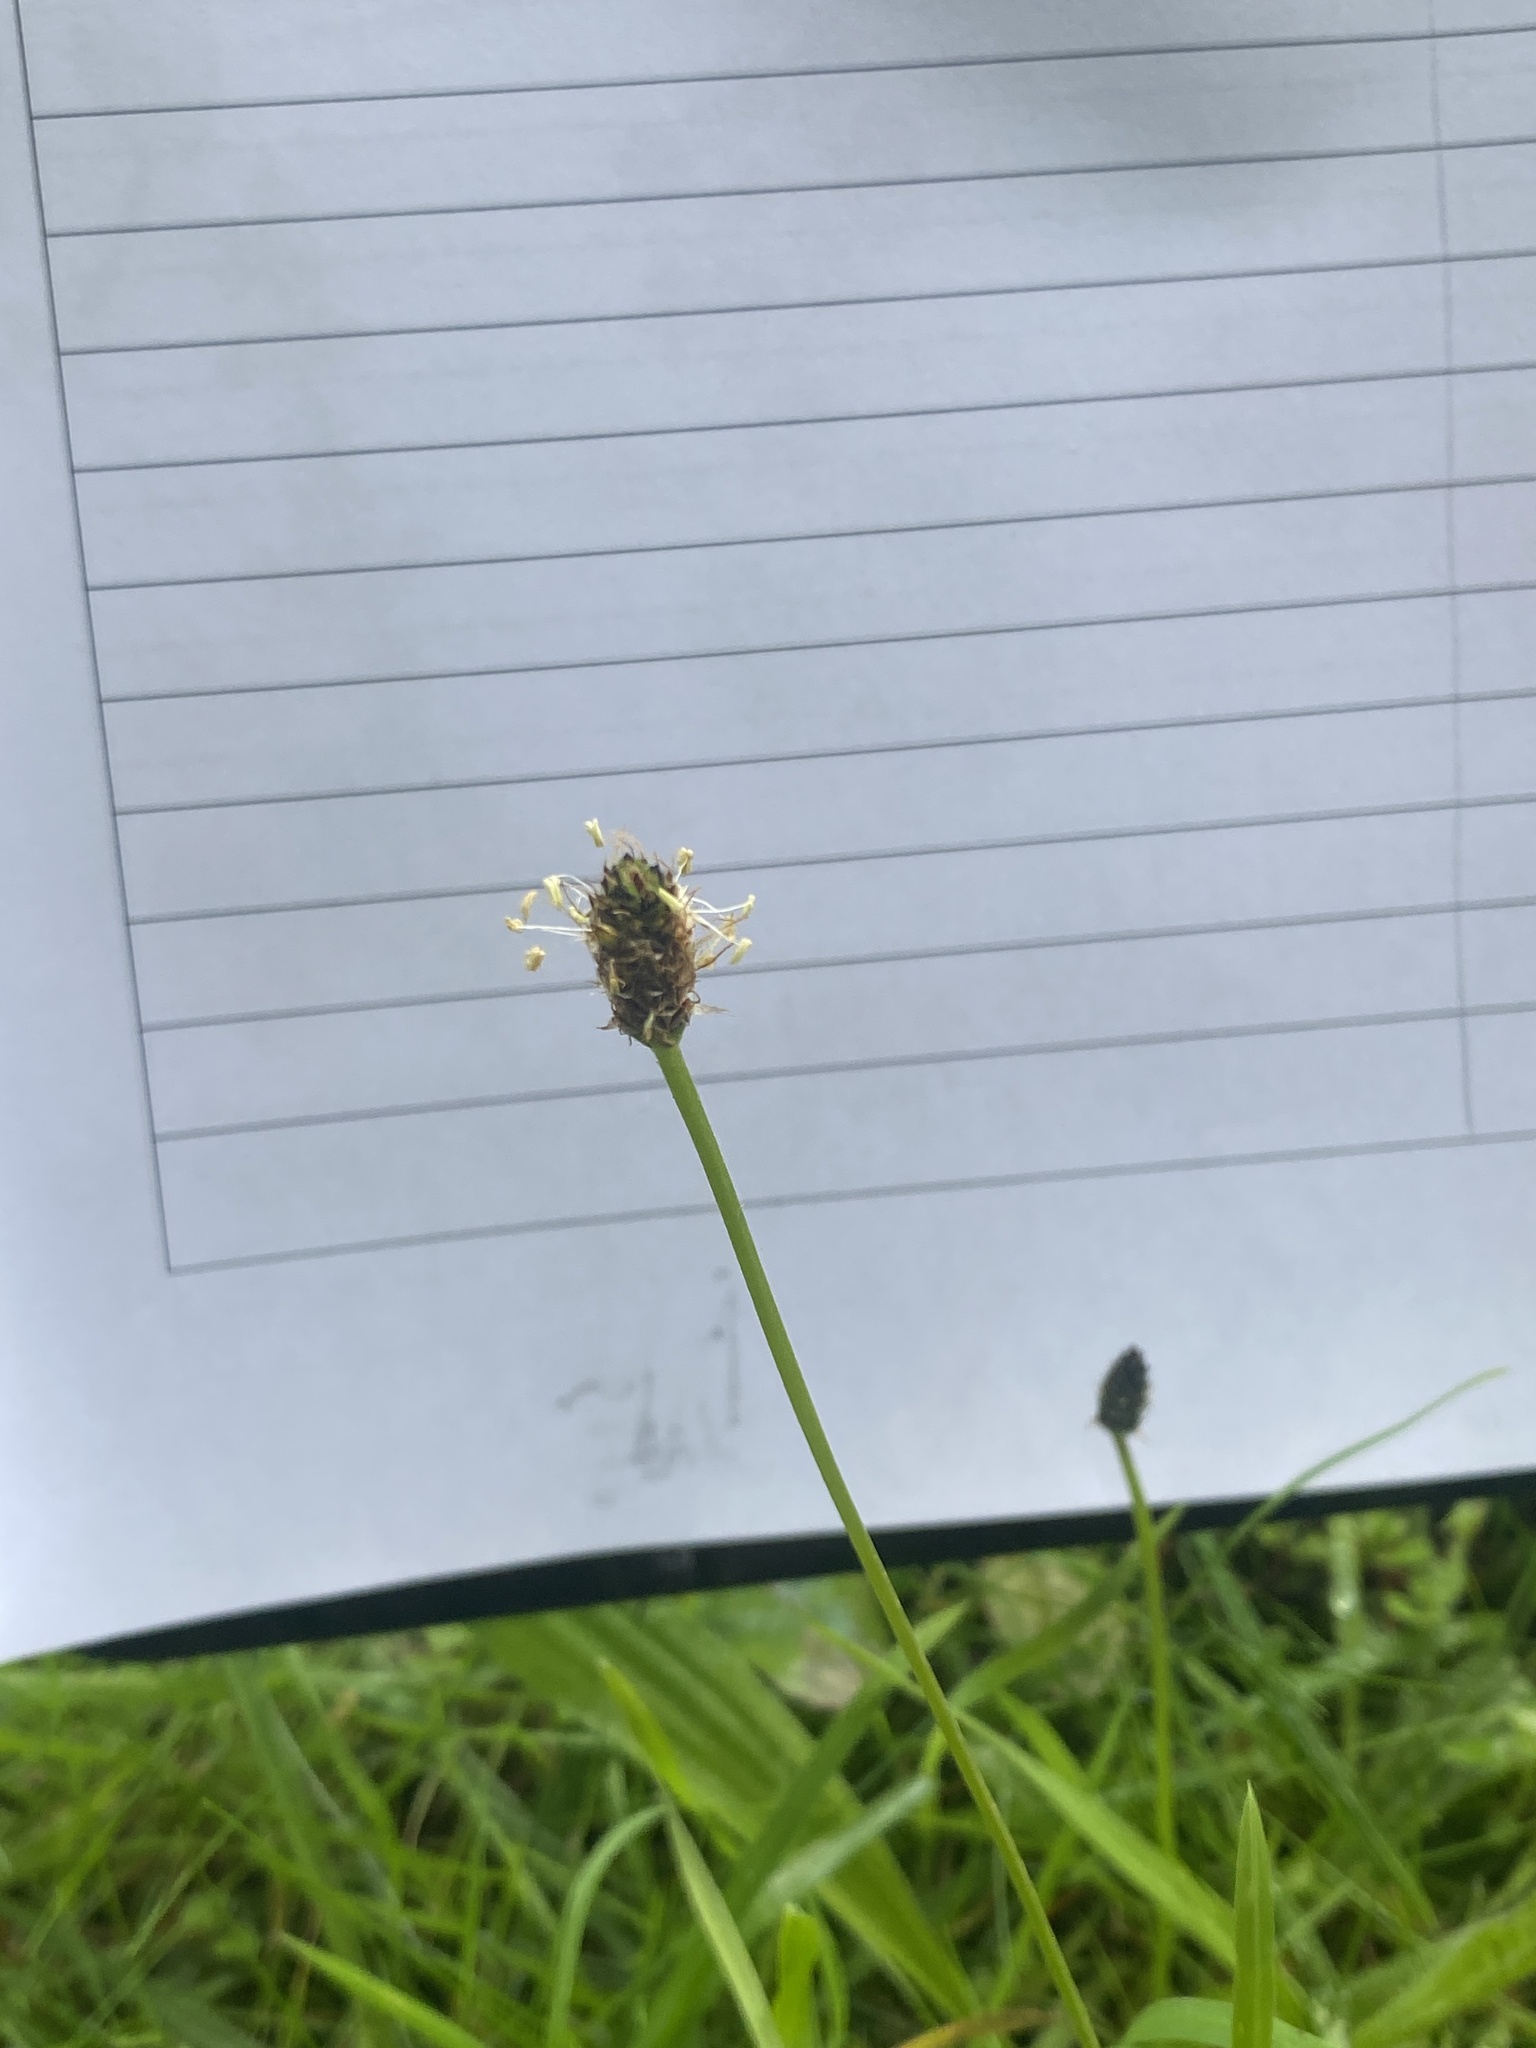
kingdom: Plantae
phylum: Tracheophyta
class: Magnoliopsida
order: Lamiales
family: Plantaginaceae
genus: Plantago
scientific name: Plantago lanceolata
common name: Ribwort plantain
